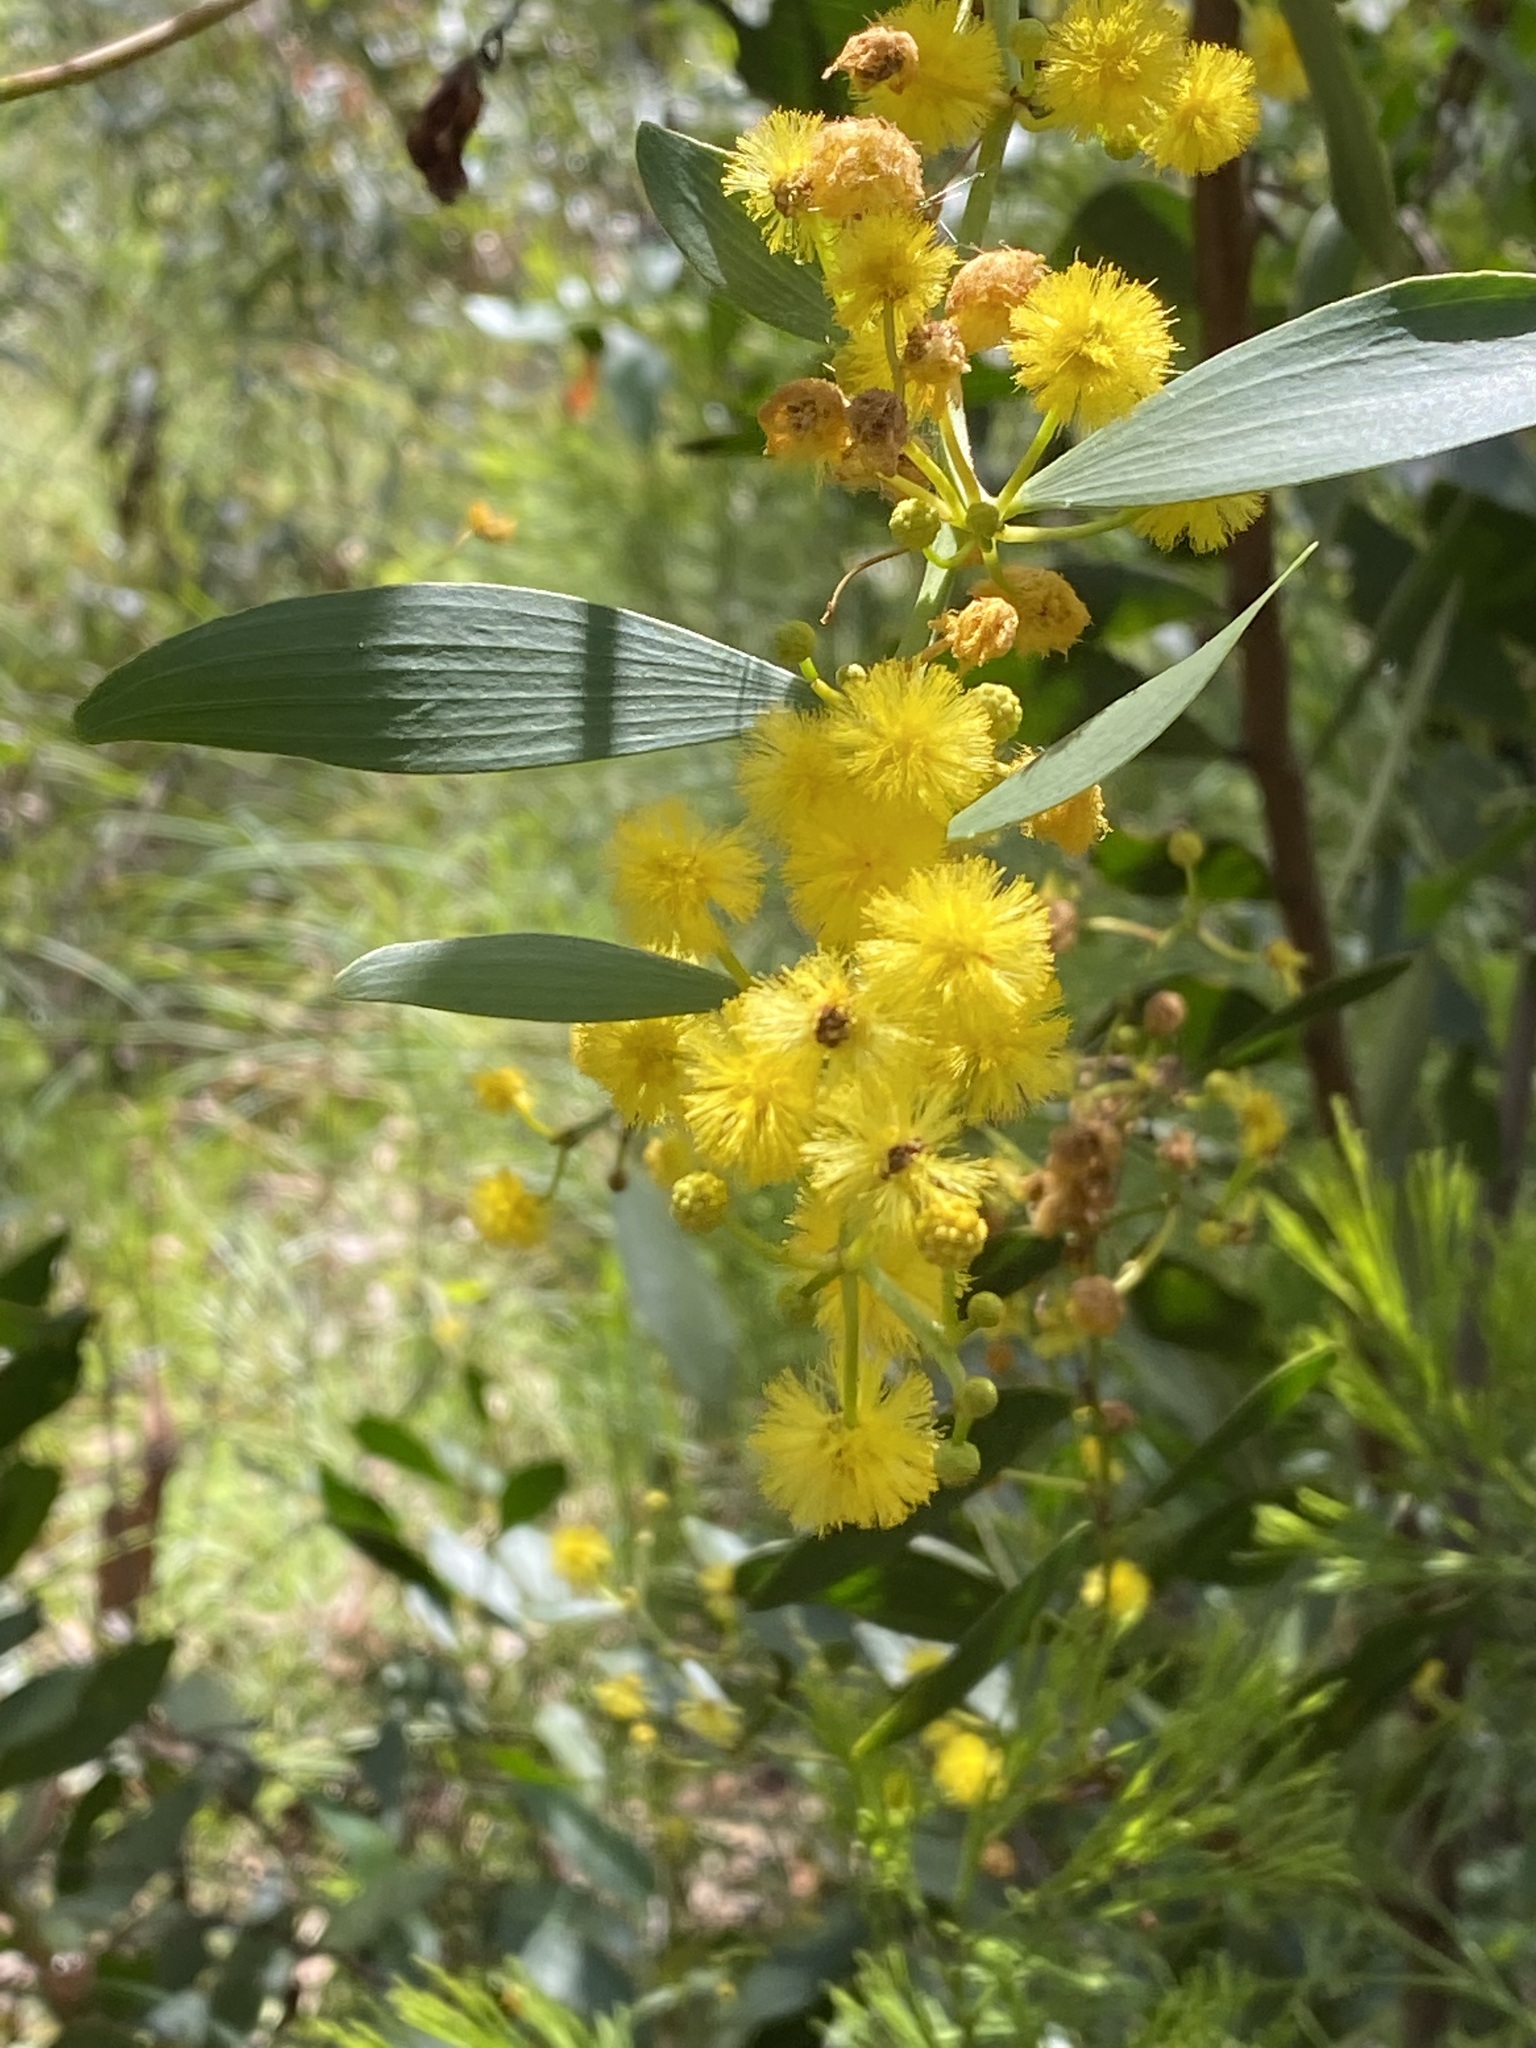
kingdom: Plantae
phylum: Tracheophyta
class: Magnoliopsida
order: Fabales
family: Fabaceae
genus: Acacia
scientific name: Acacia complanata
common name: Flat-stemmed wattle
